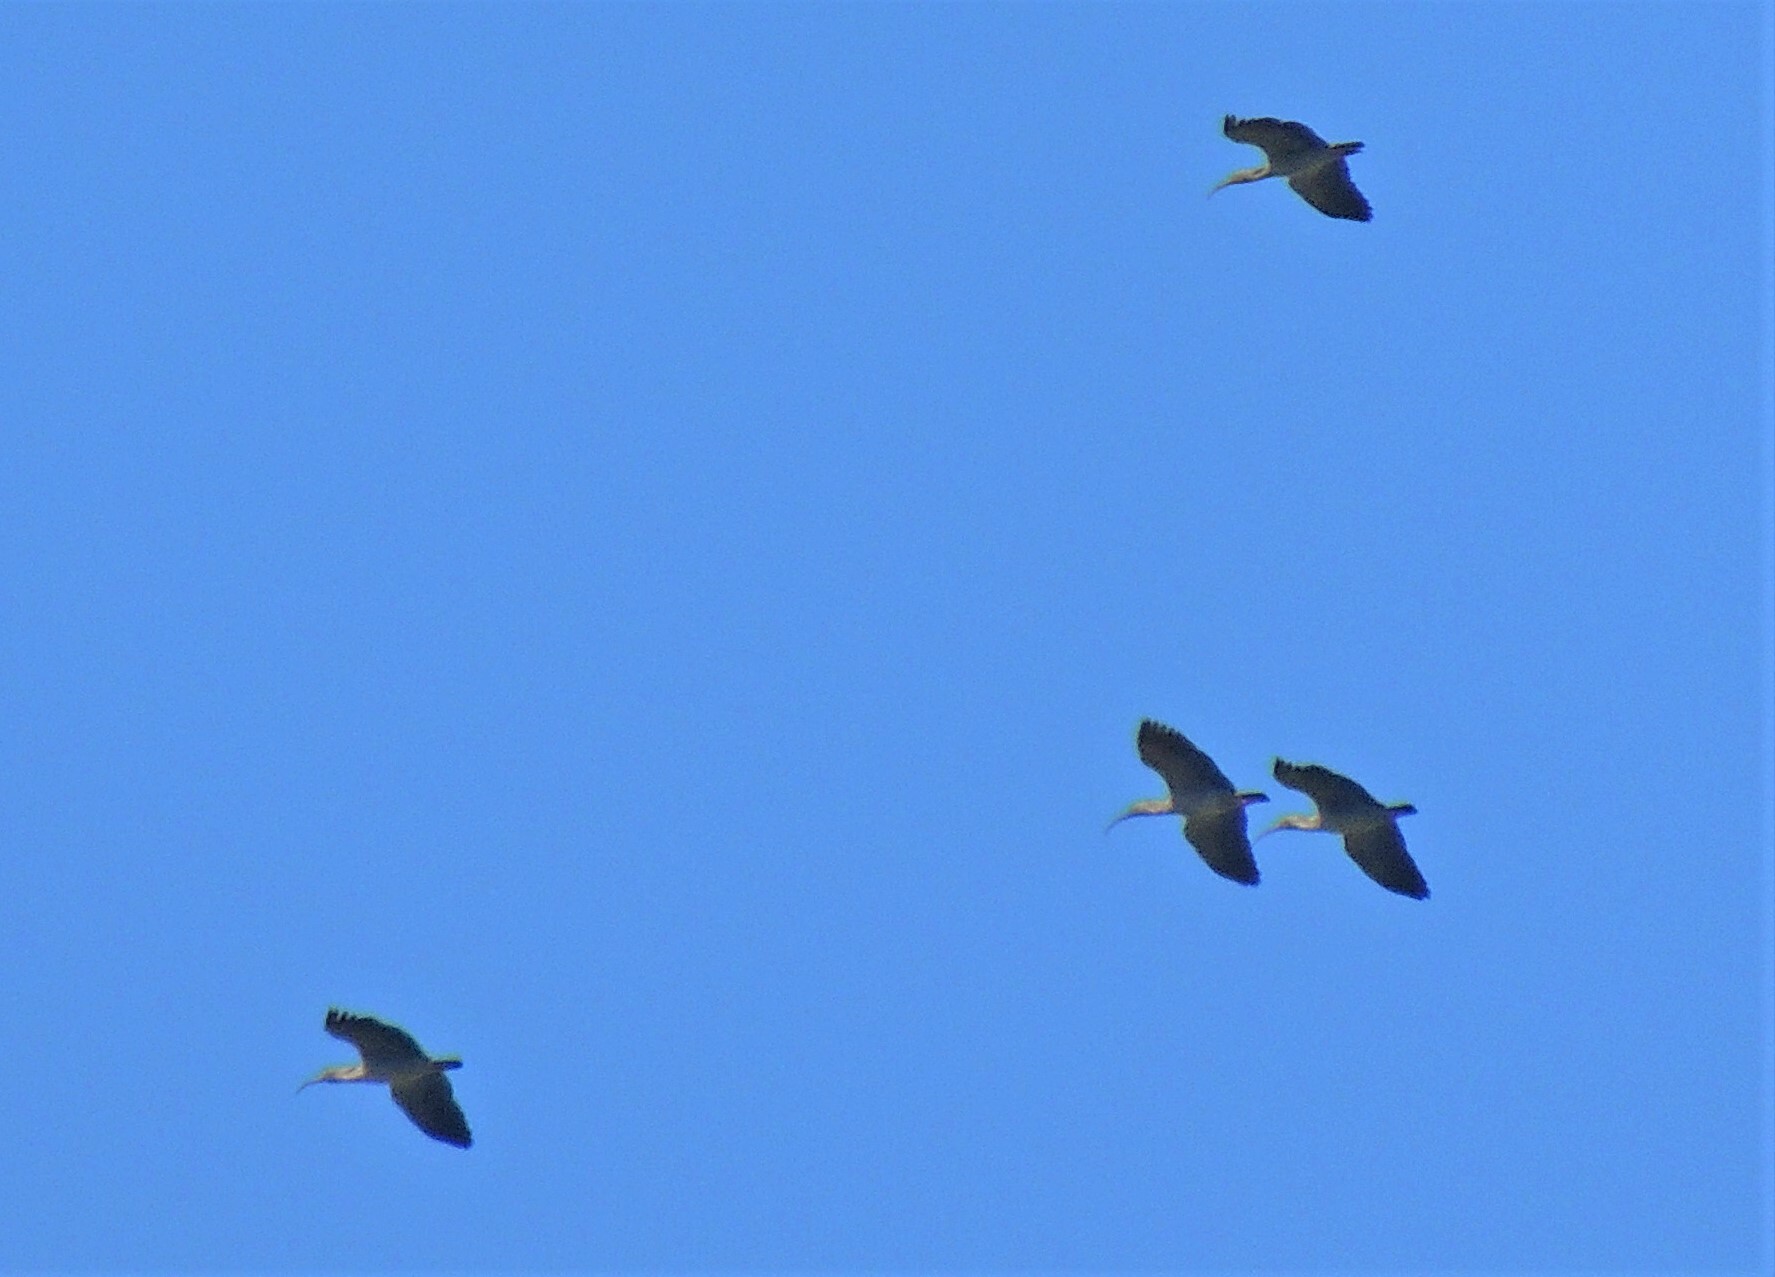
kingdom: Animalia
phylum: Chordata
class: Aves
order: Pelecaniformes
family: Threskiornithidae
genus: Theristicus
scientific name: Theristicus caerulescens
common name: Plumbeous ibis
